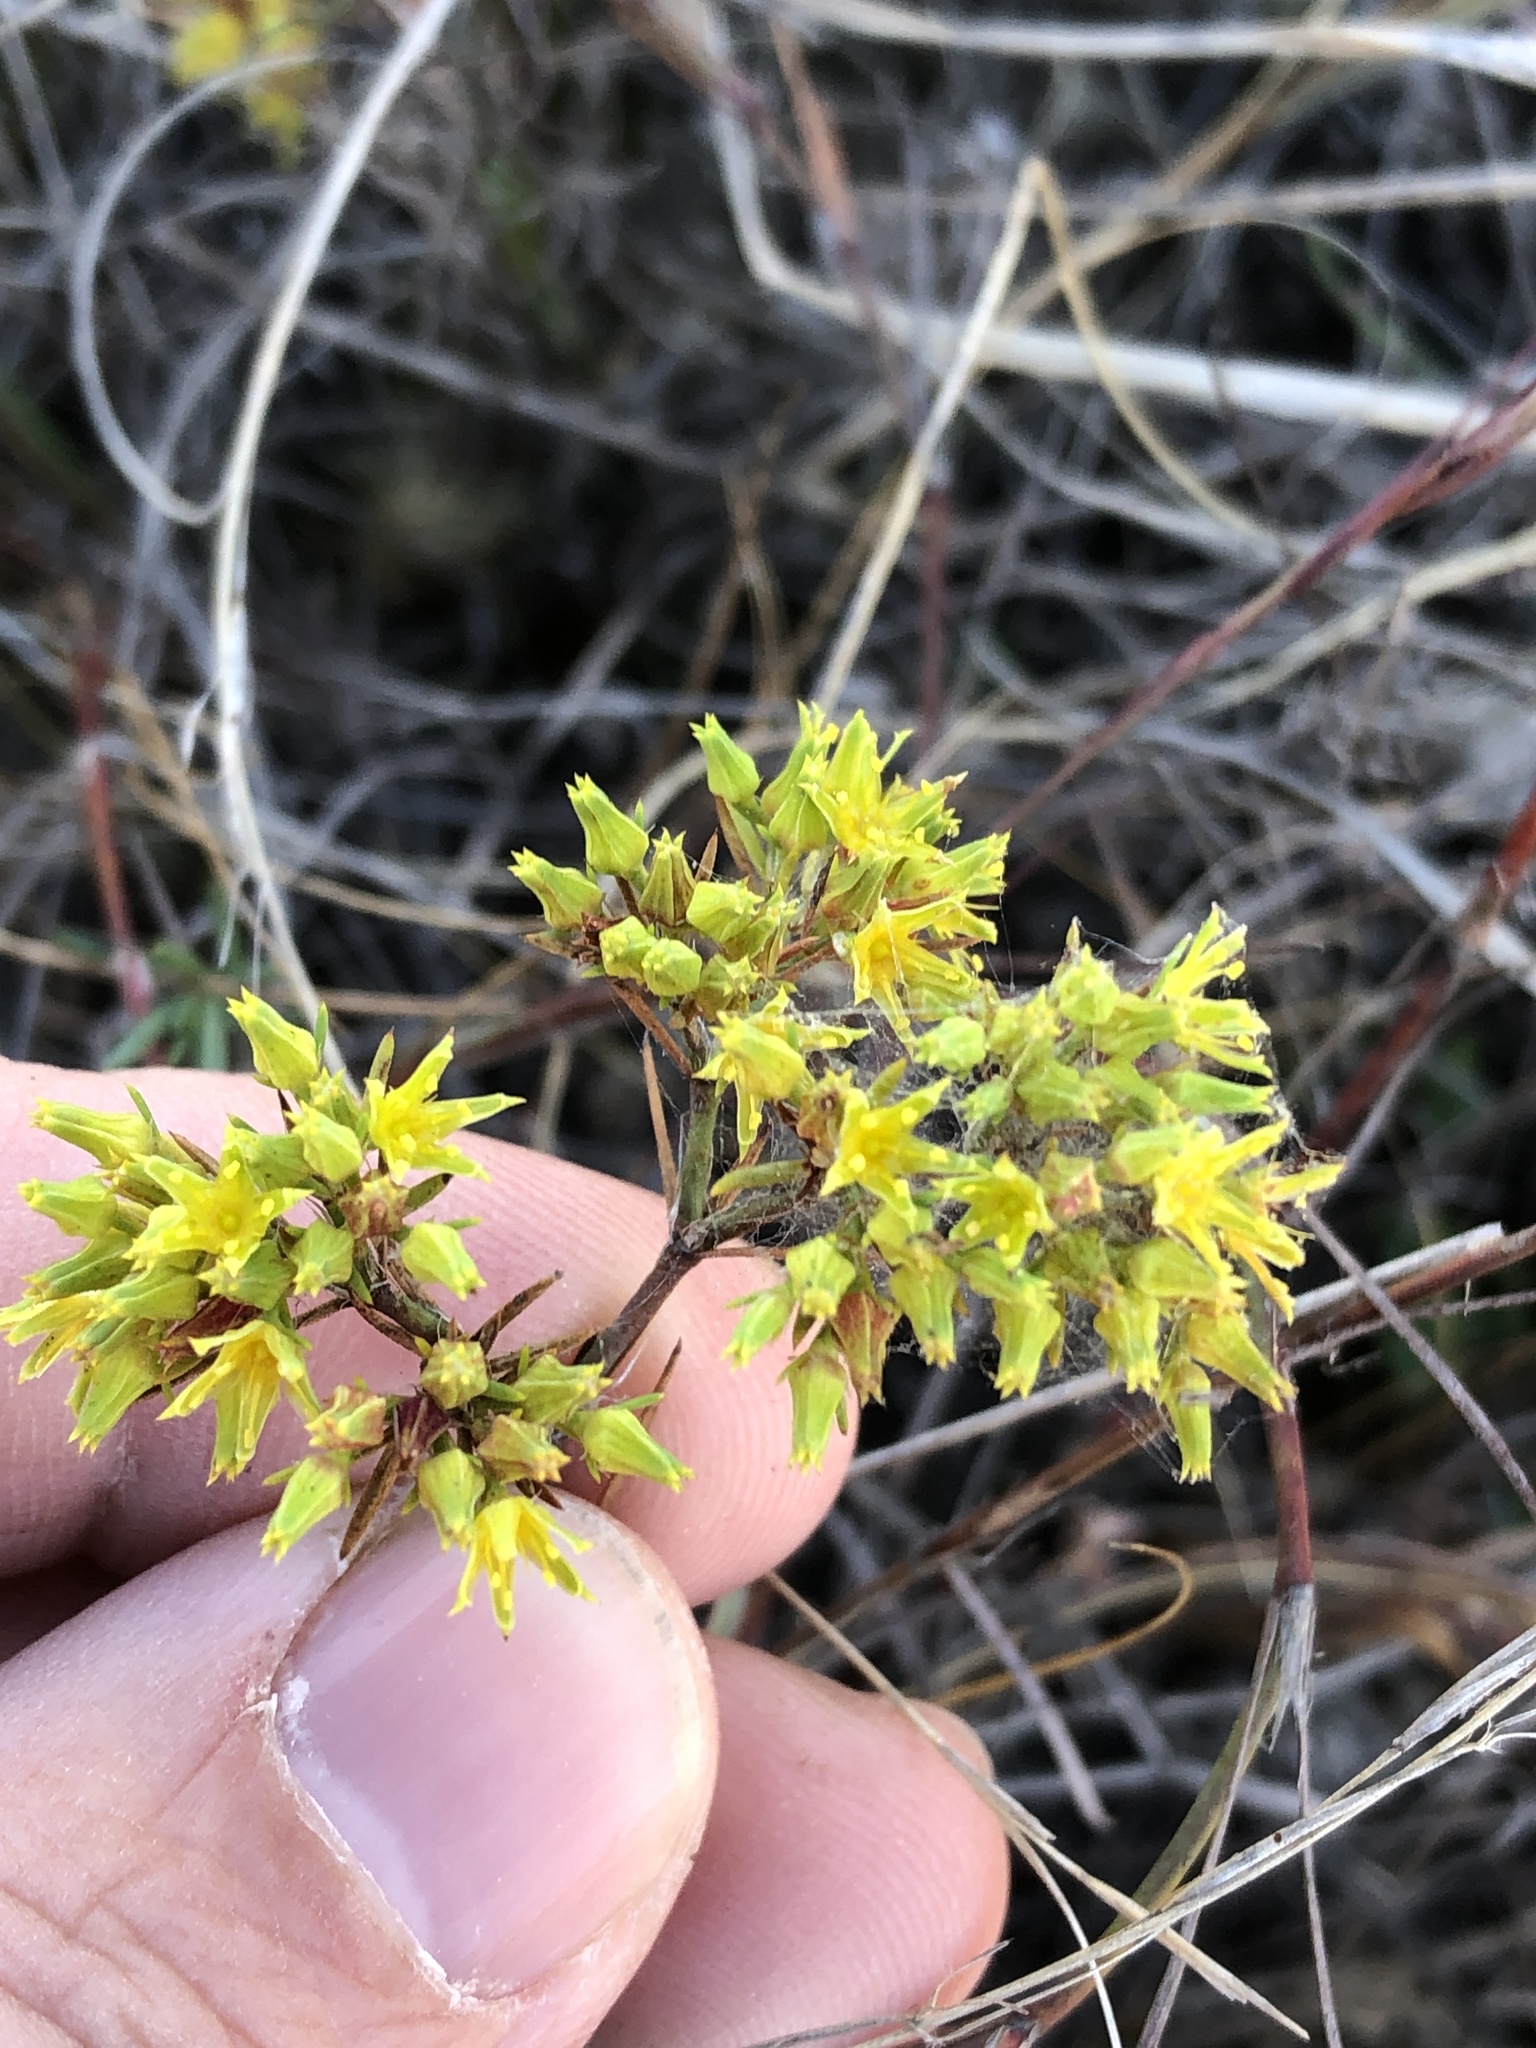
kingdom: Plantae
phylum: Tracheophyta
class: Magnoliopsida
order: Caryophyllales
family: Caryophyllaceae
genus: Paronychia
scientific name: Paronychia virginica
